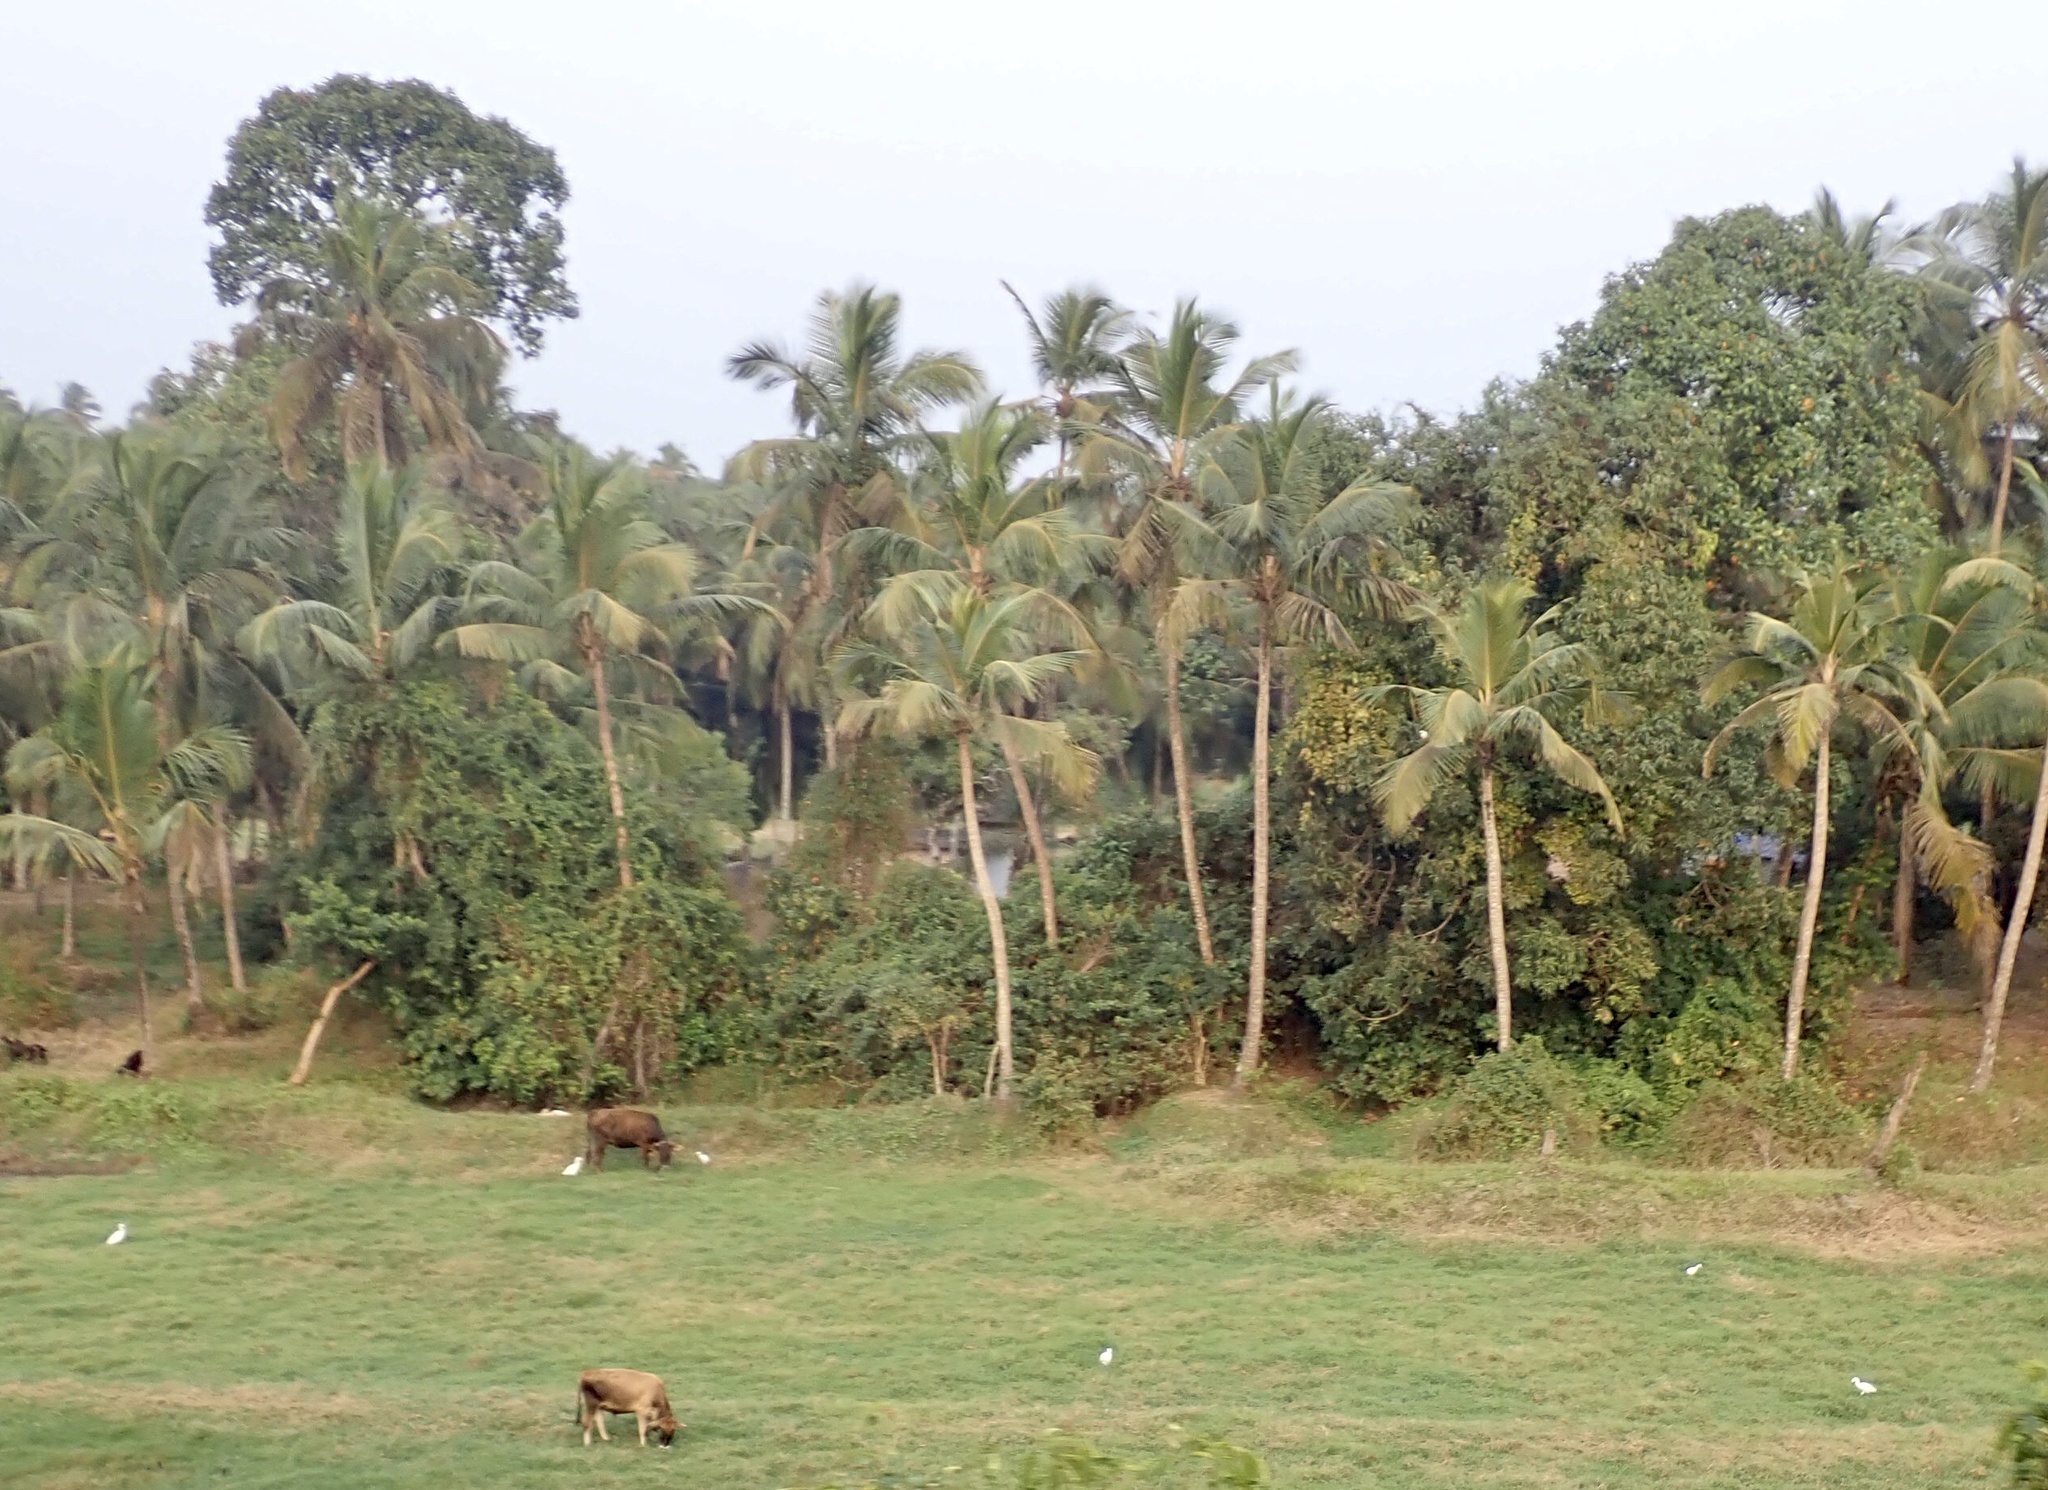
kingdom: Animalia
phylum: Chordata
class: Aves
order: Pelecaniformes
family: Ardeidae
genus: Bubulcus
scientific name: Bubulcus coromandus
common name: Eastern cattle egret
